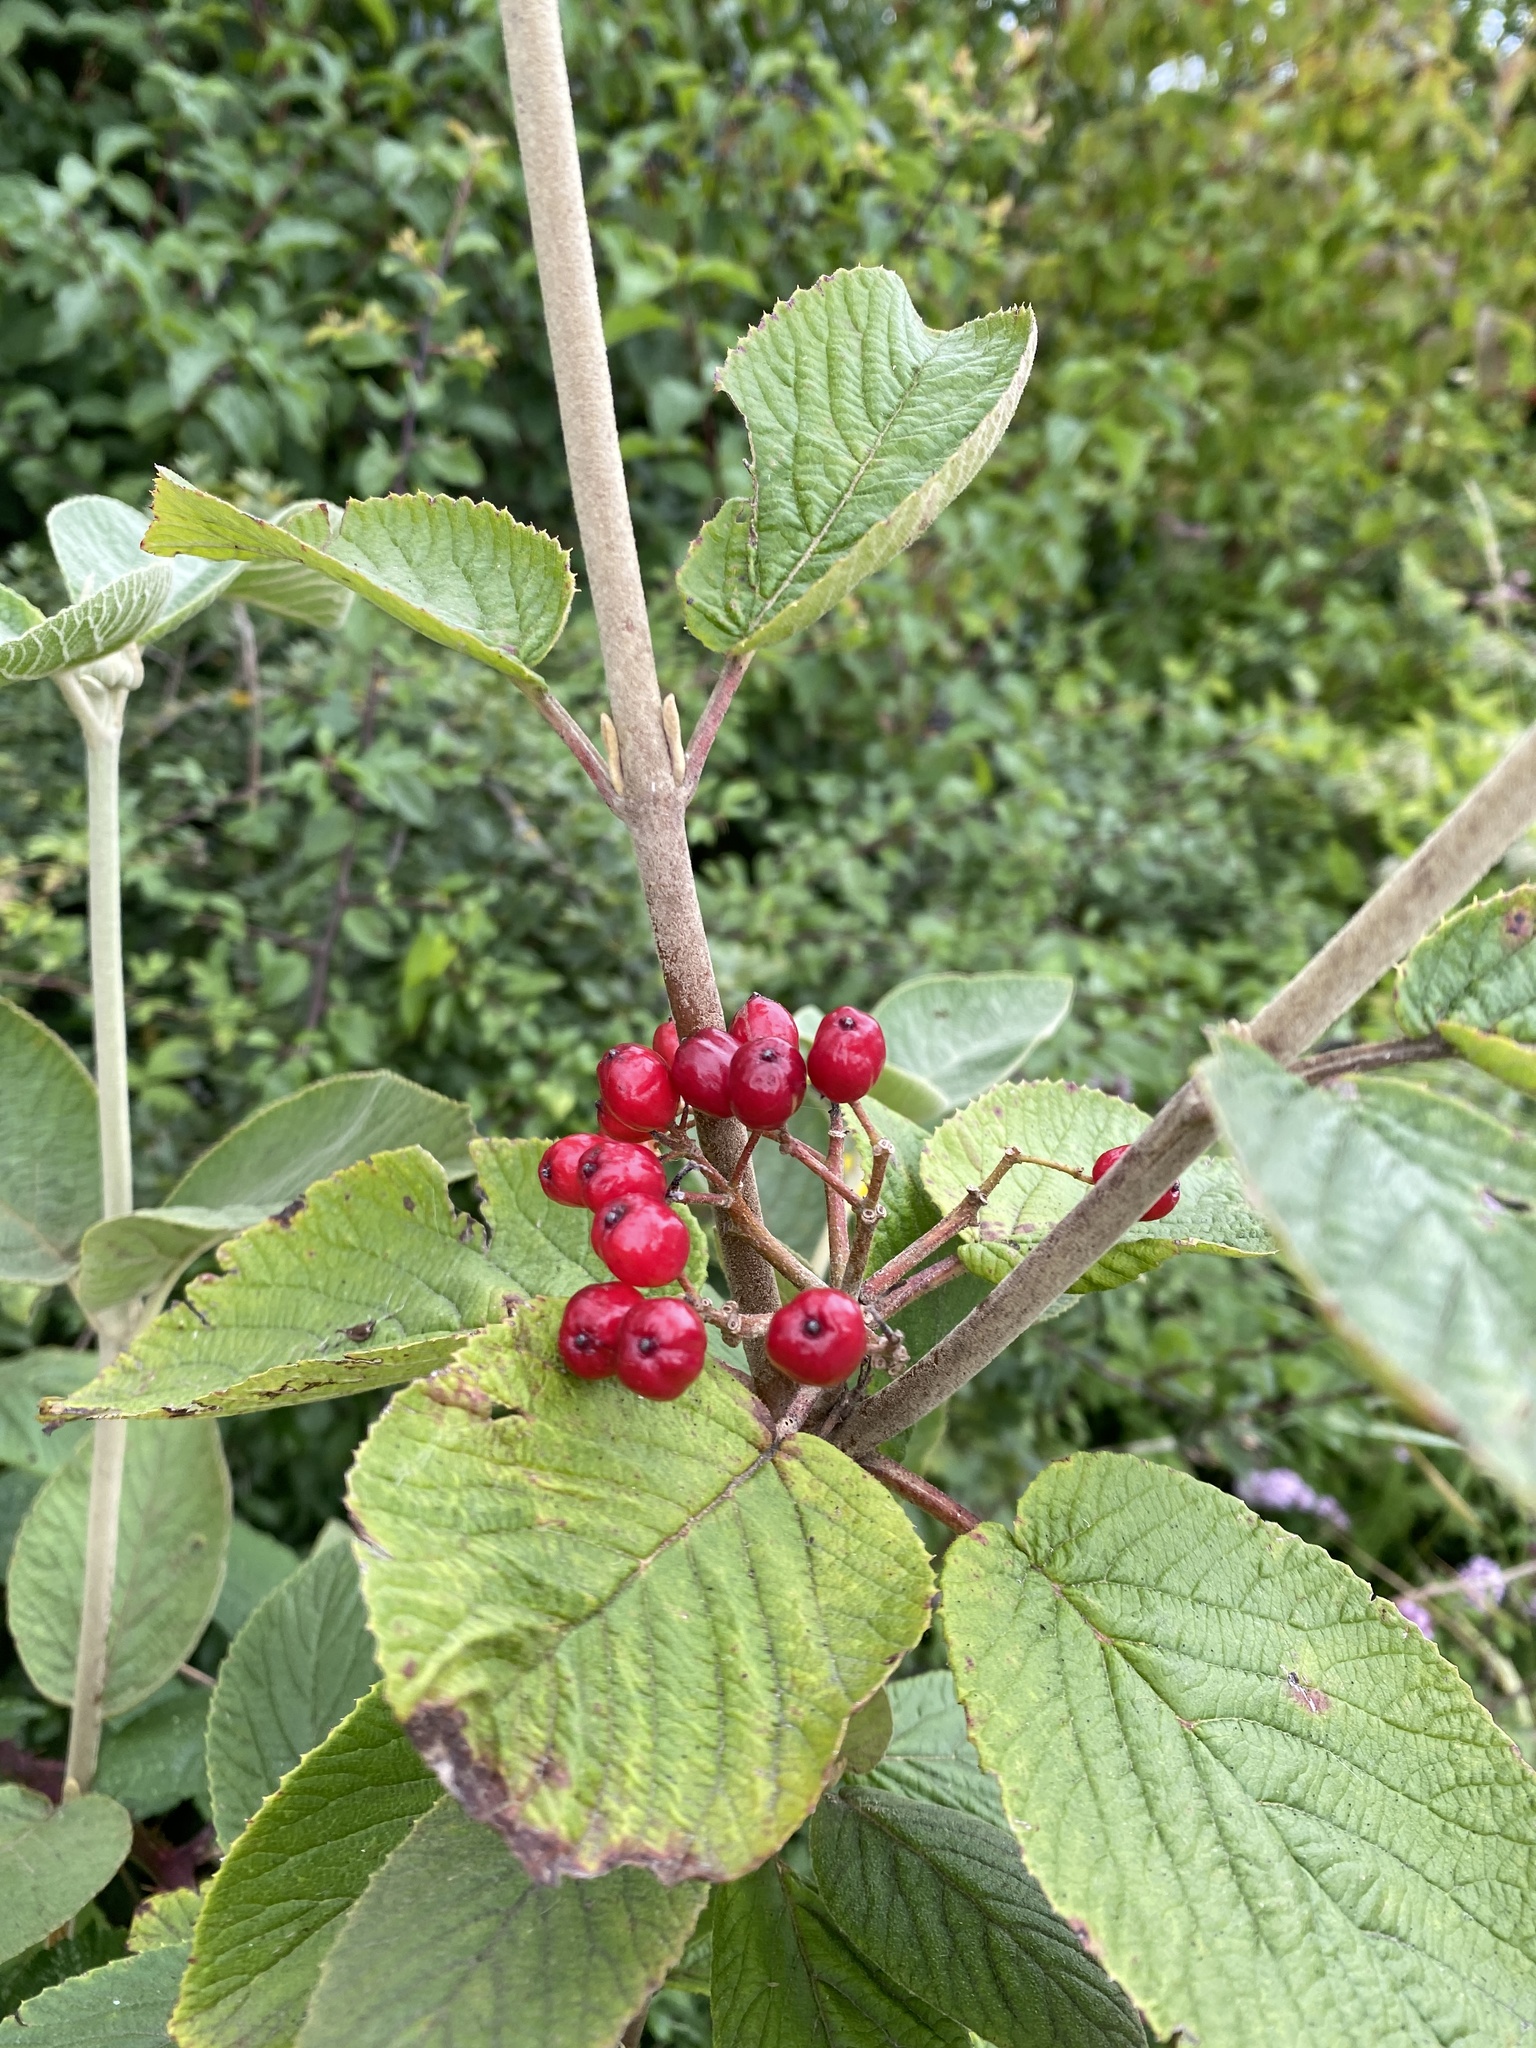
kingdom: Plantae
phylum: Tracheophyta
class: Magnoliopsida
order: Dipsacales
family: Viburnaceae
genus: Viburnum
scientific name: Viburnum lantana
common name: Wayfaring tree
